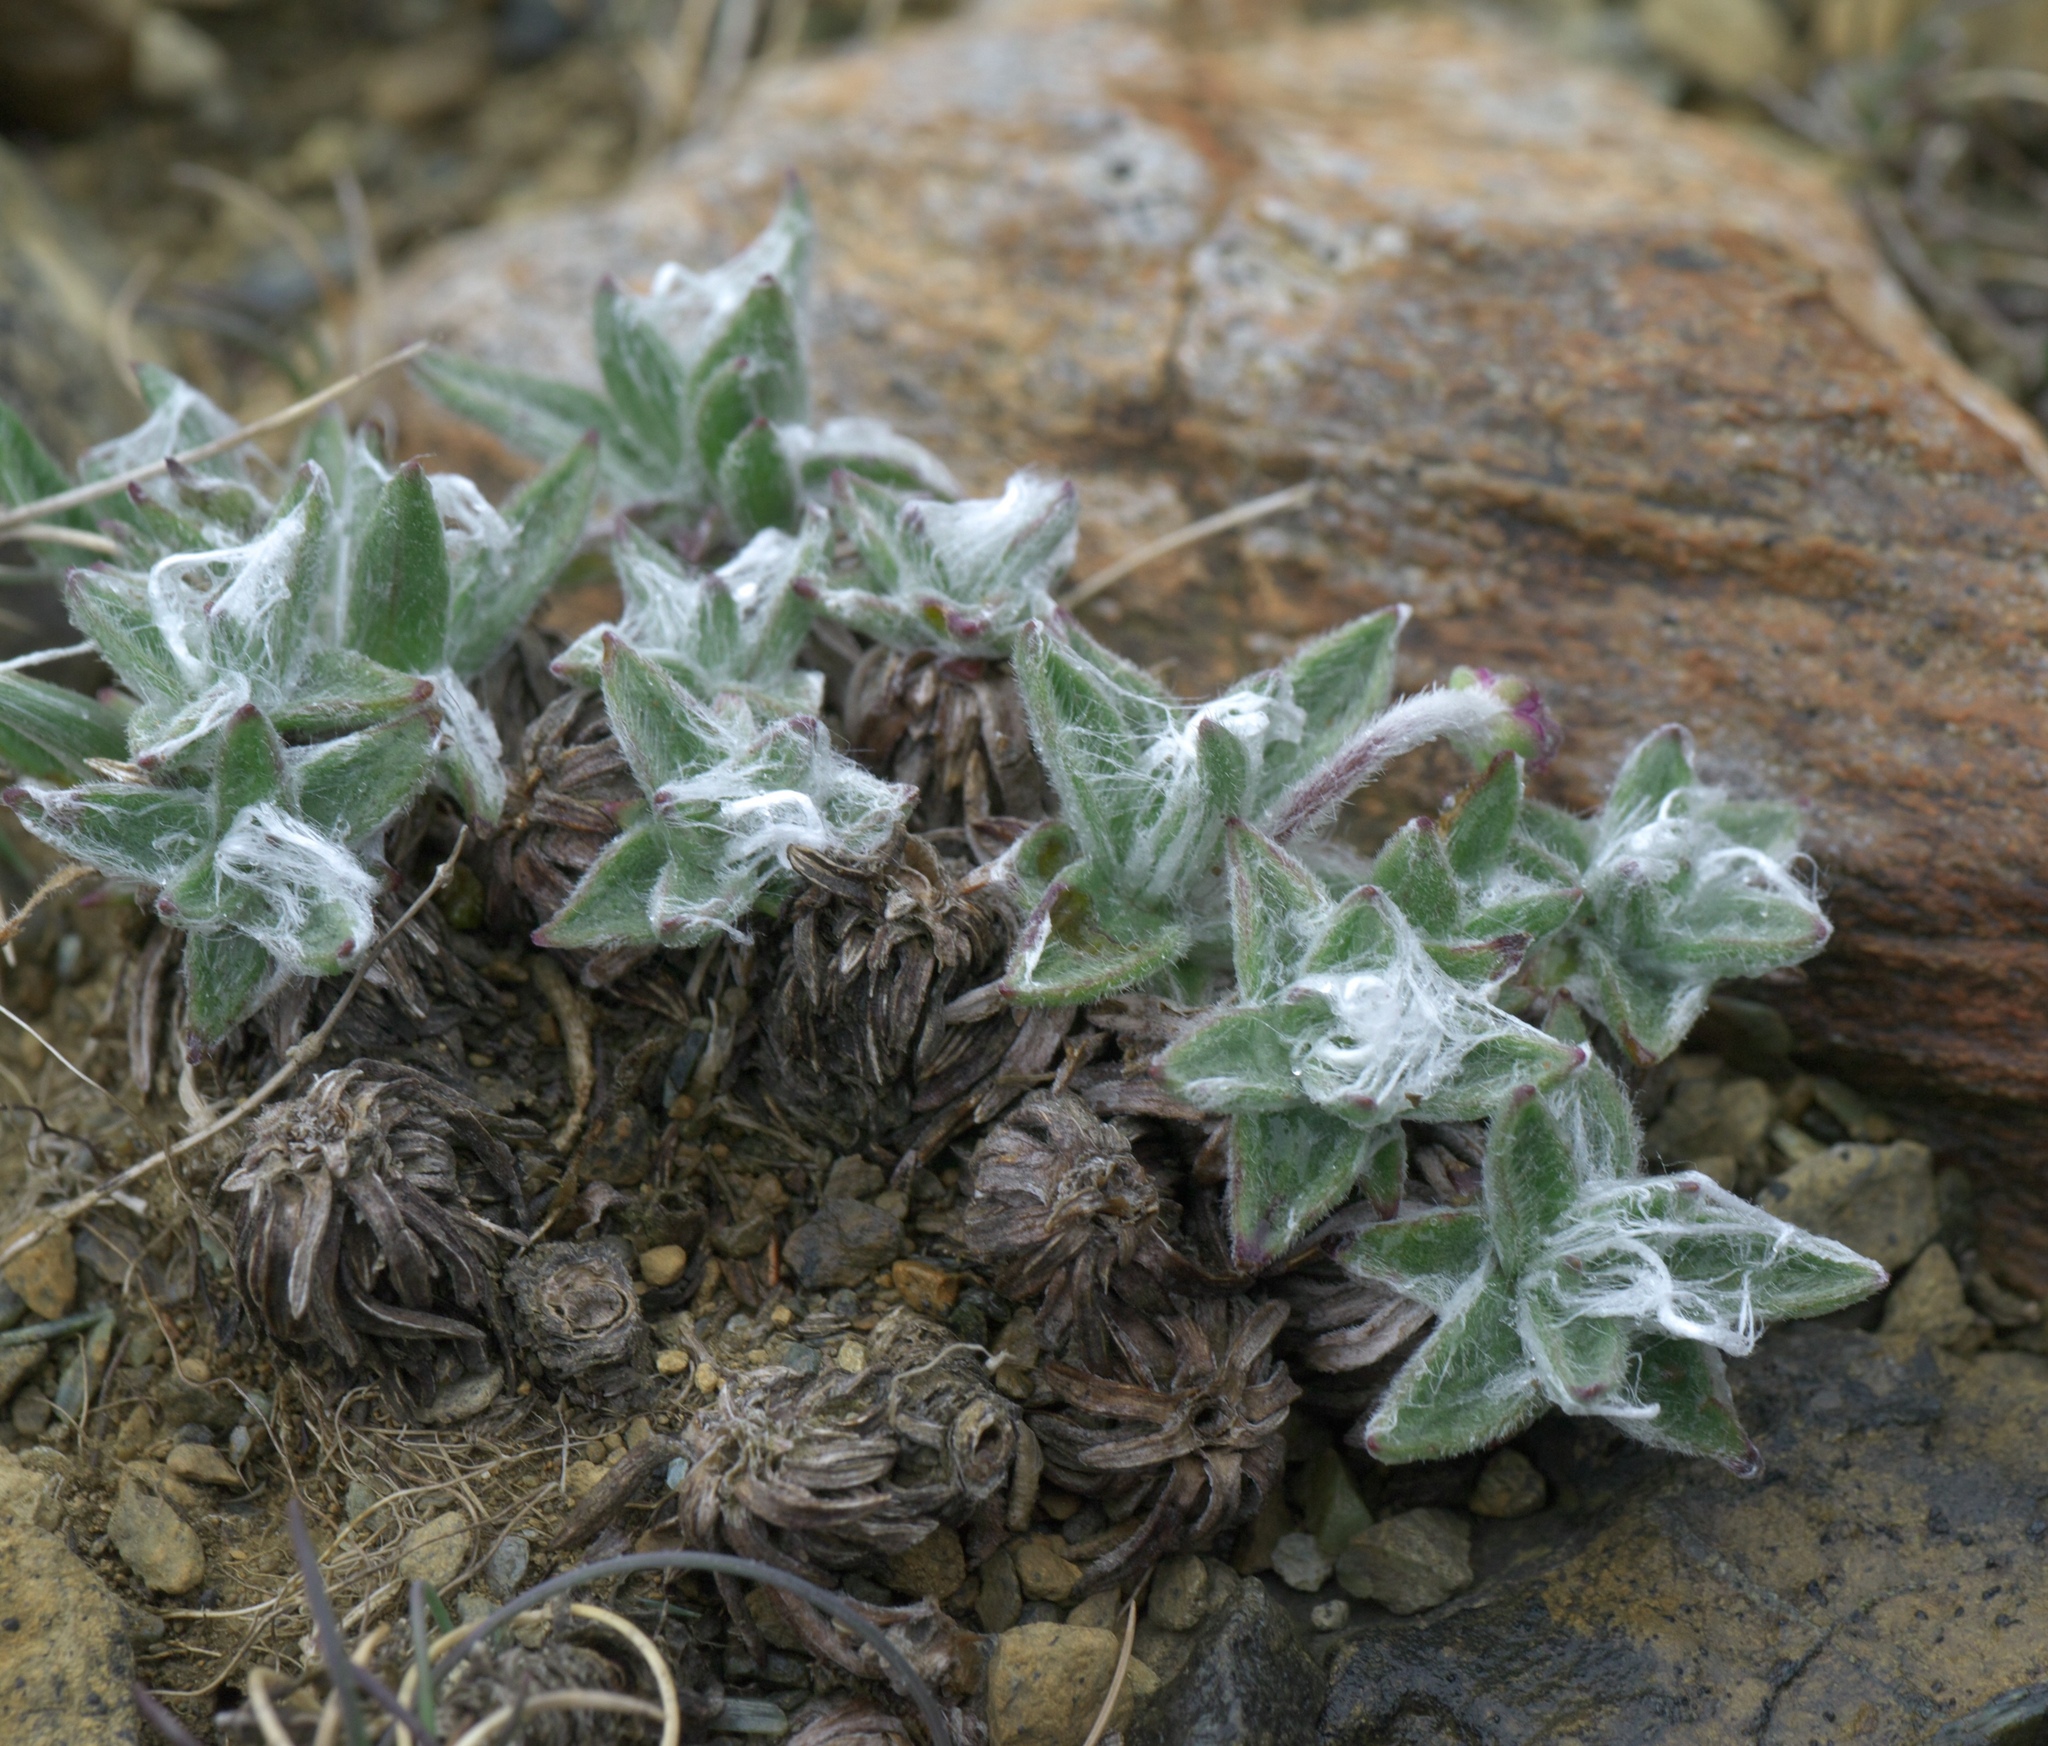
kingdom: Plantae
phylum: Tracheophyta
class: Magnoliopsida
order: Lamiales
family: Plantaginaceae
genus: Plantago
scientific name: Plantago maritima
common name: Sea plantain
